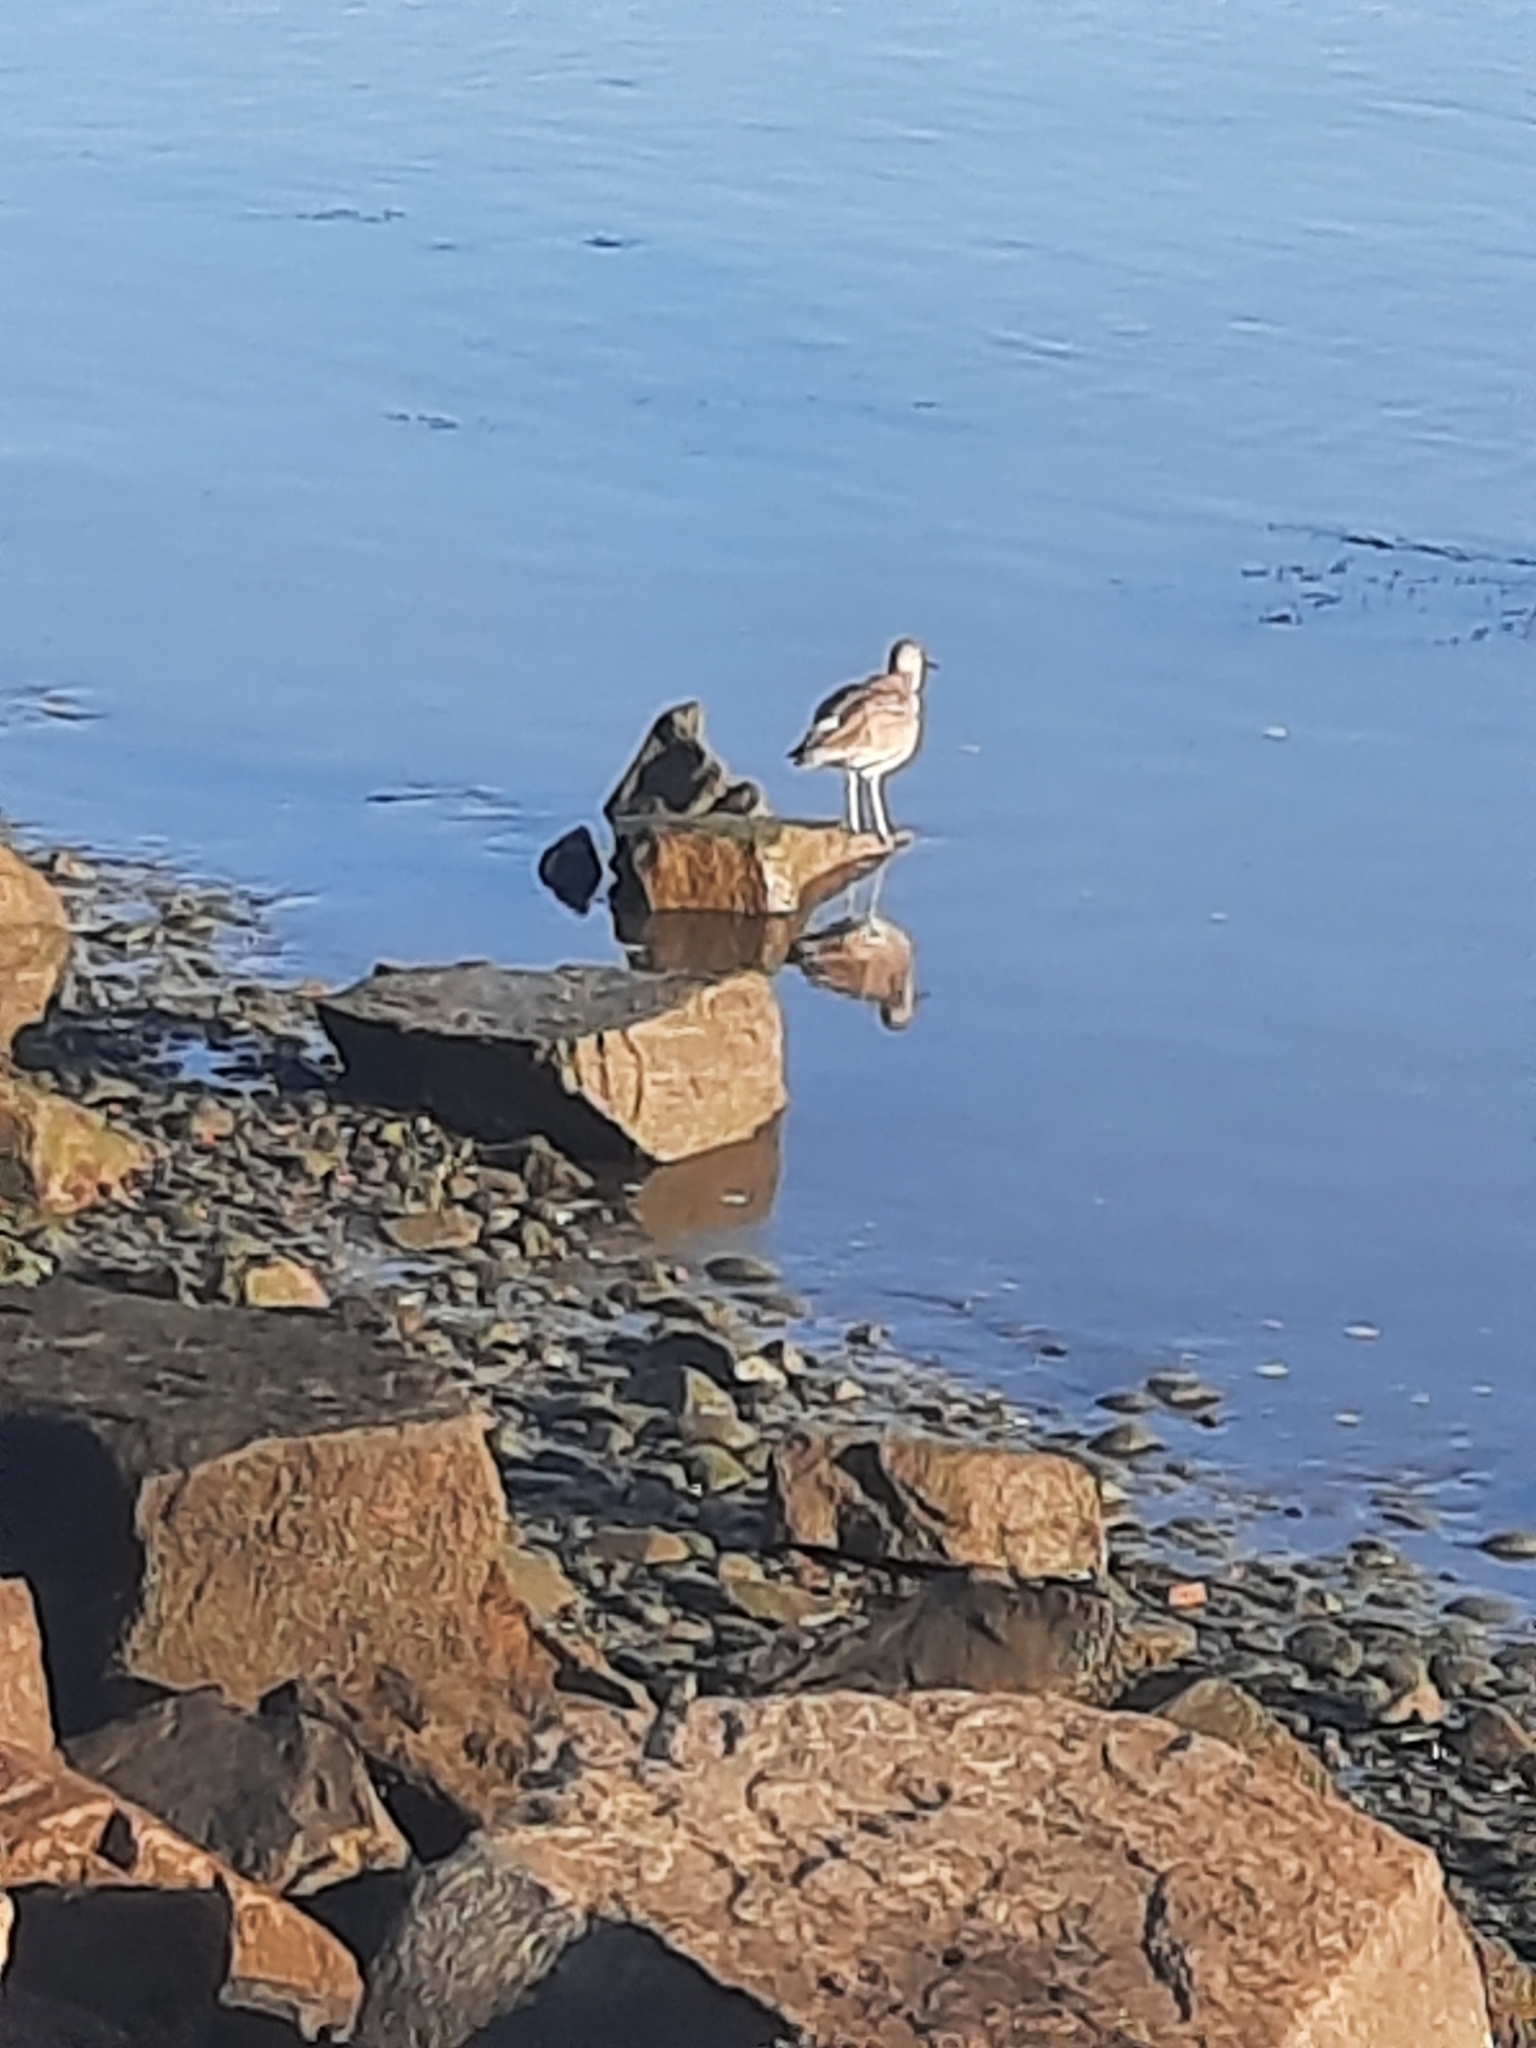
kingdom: Animalia
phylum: Chordata
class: Aves
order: Charadriiformes
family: Scolopacidae
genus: Tringa
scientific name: Tringa semipalmata
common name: Willet
